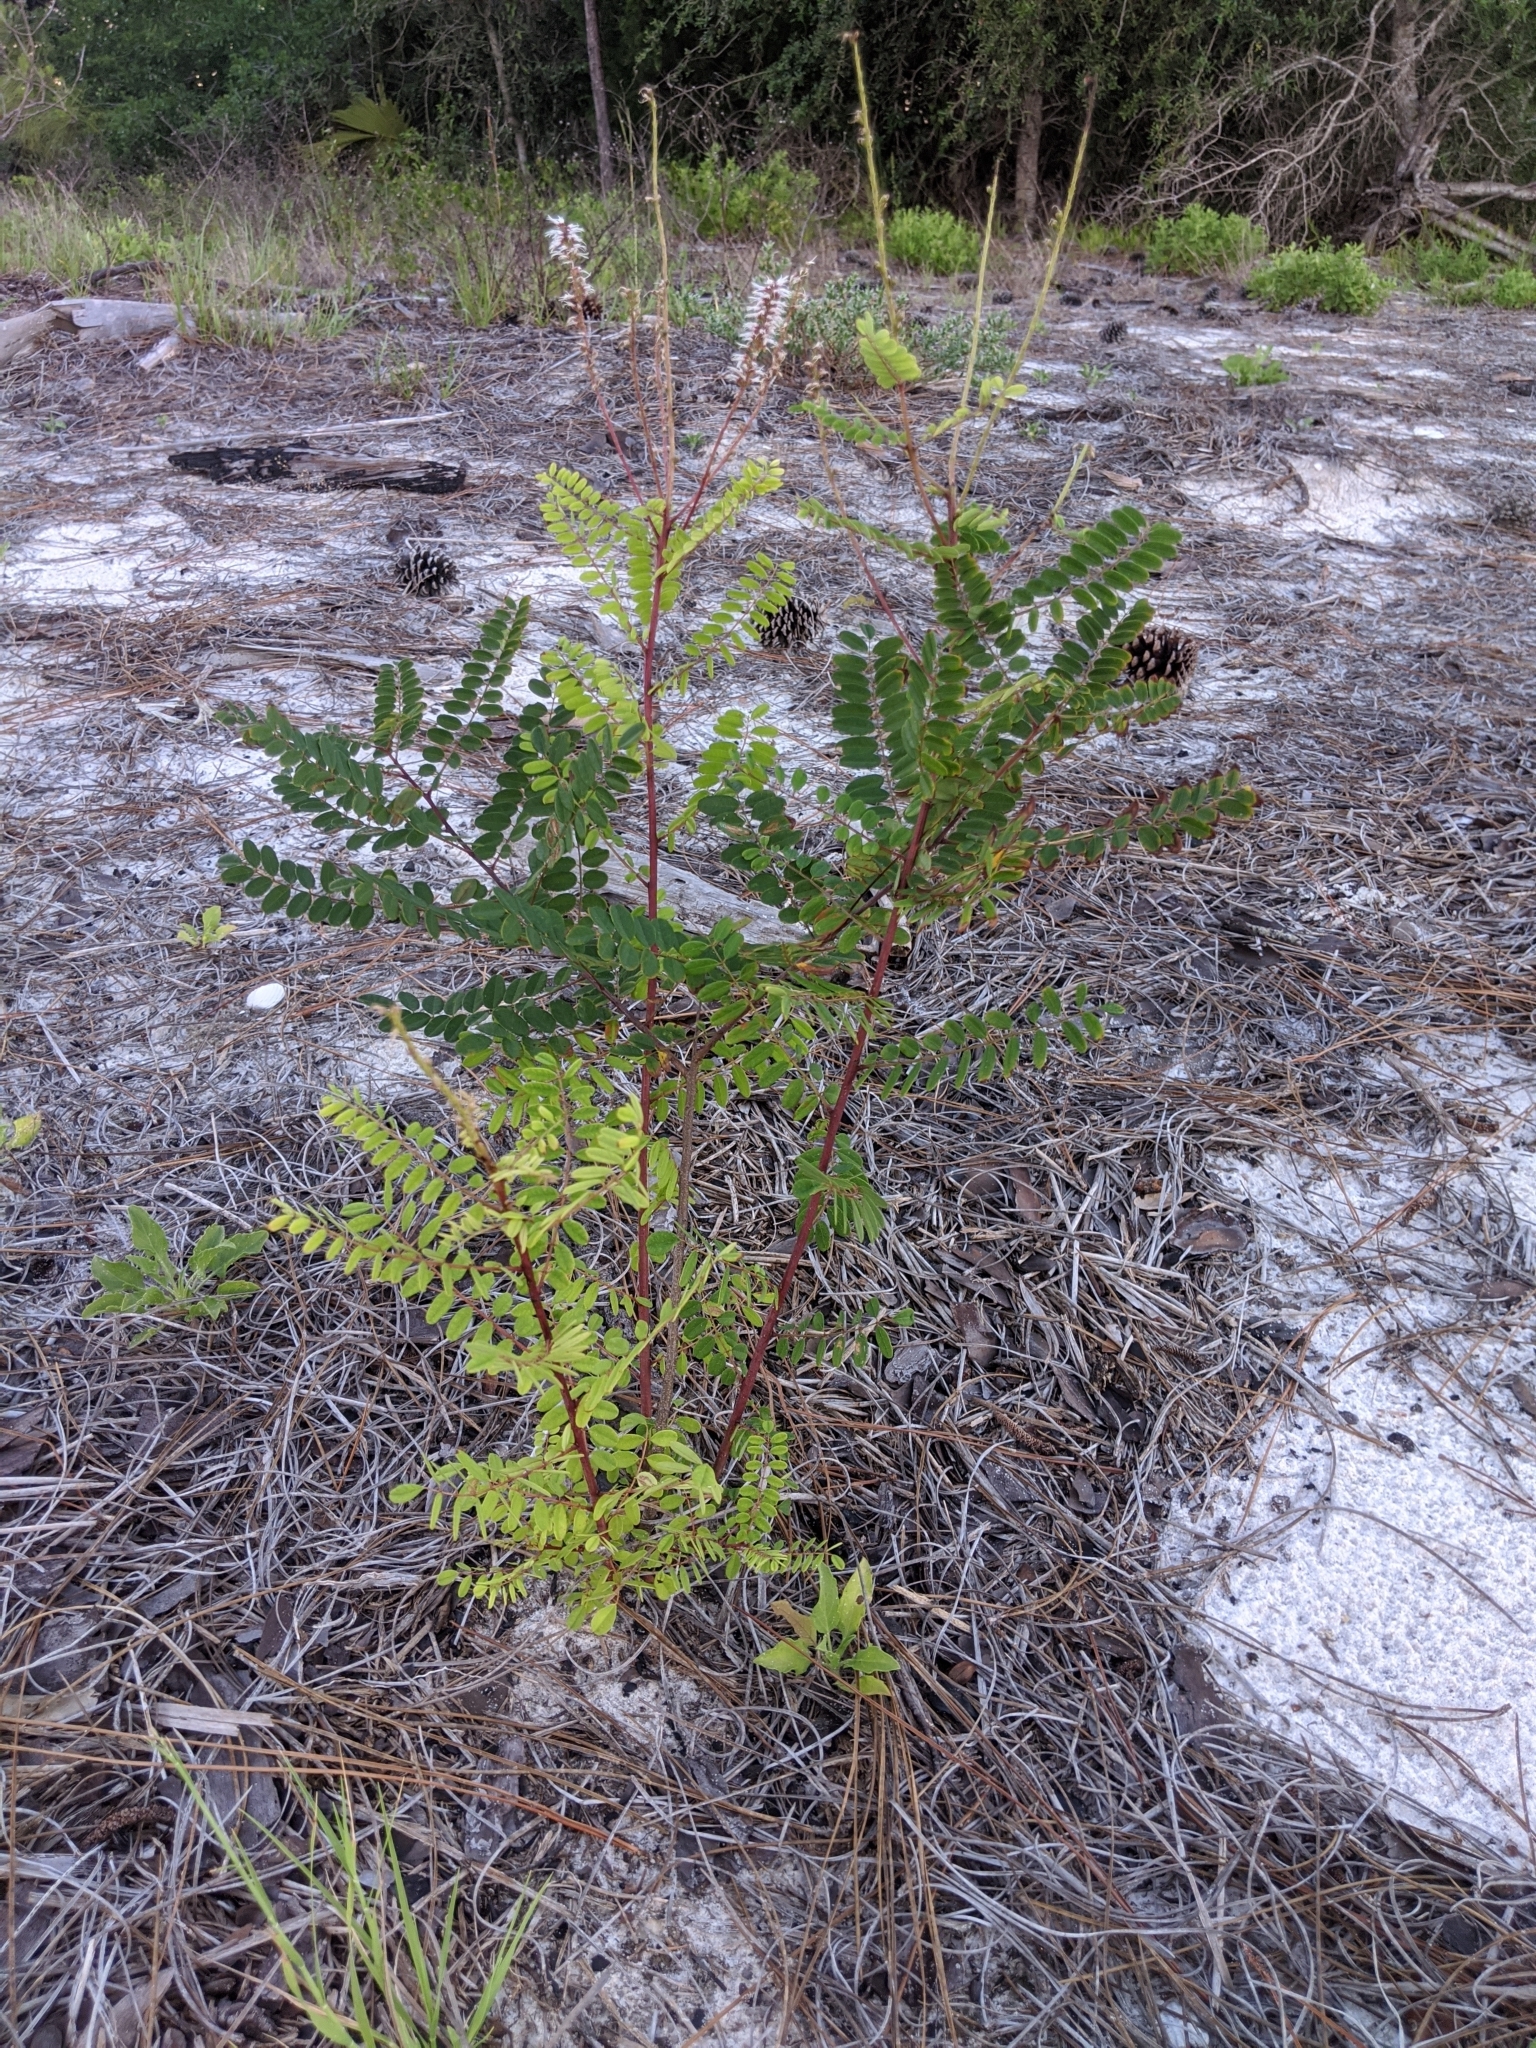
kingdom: Plantae
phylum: Tracheophyta
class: Magnoliopsida
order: Fabales
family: Fabaceae
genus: Amorpha
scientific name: Amorpha herbacea
